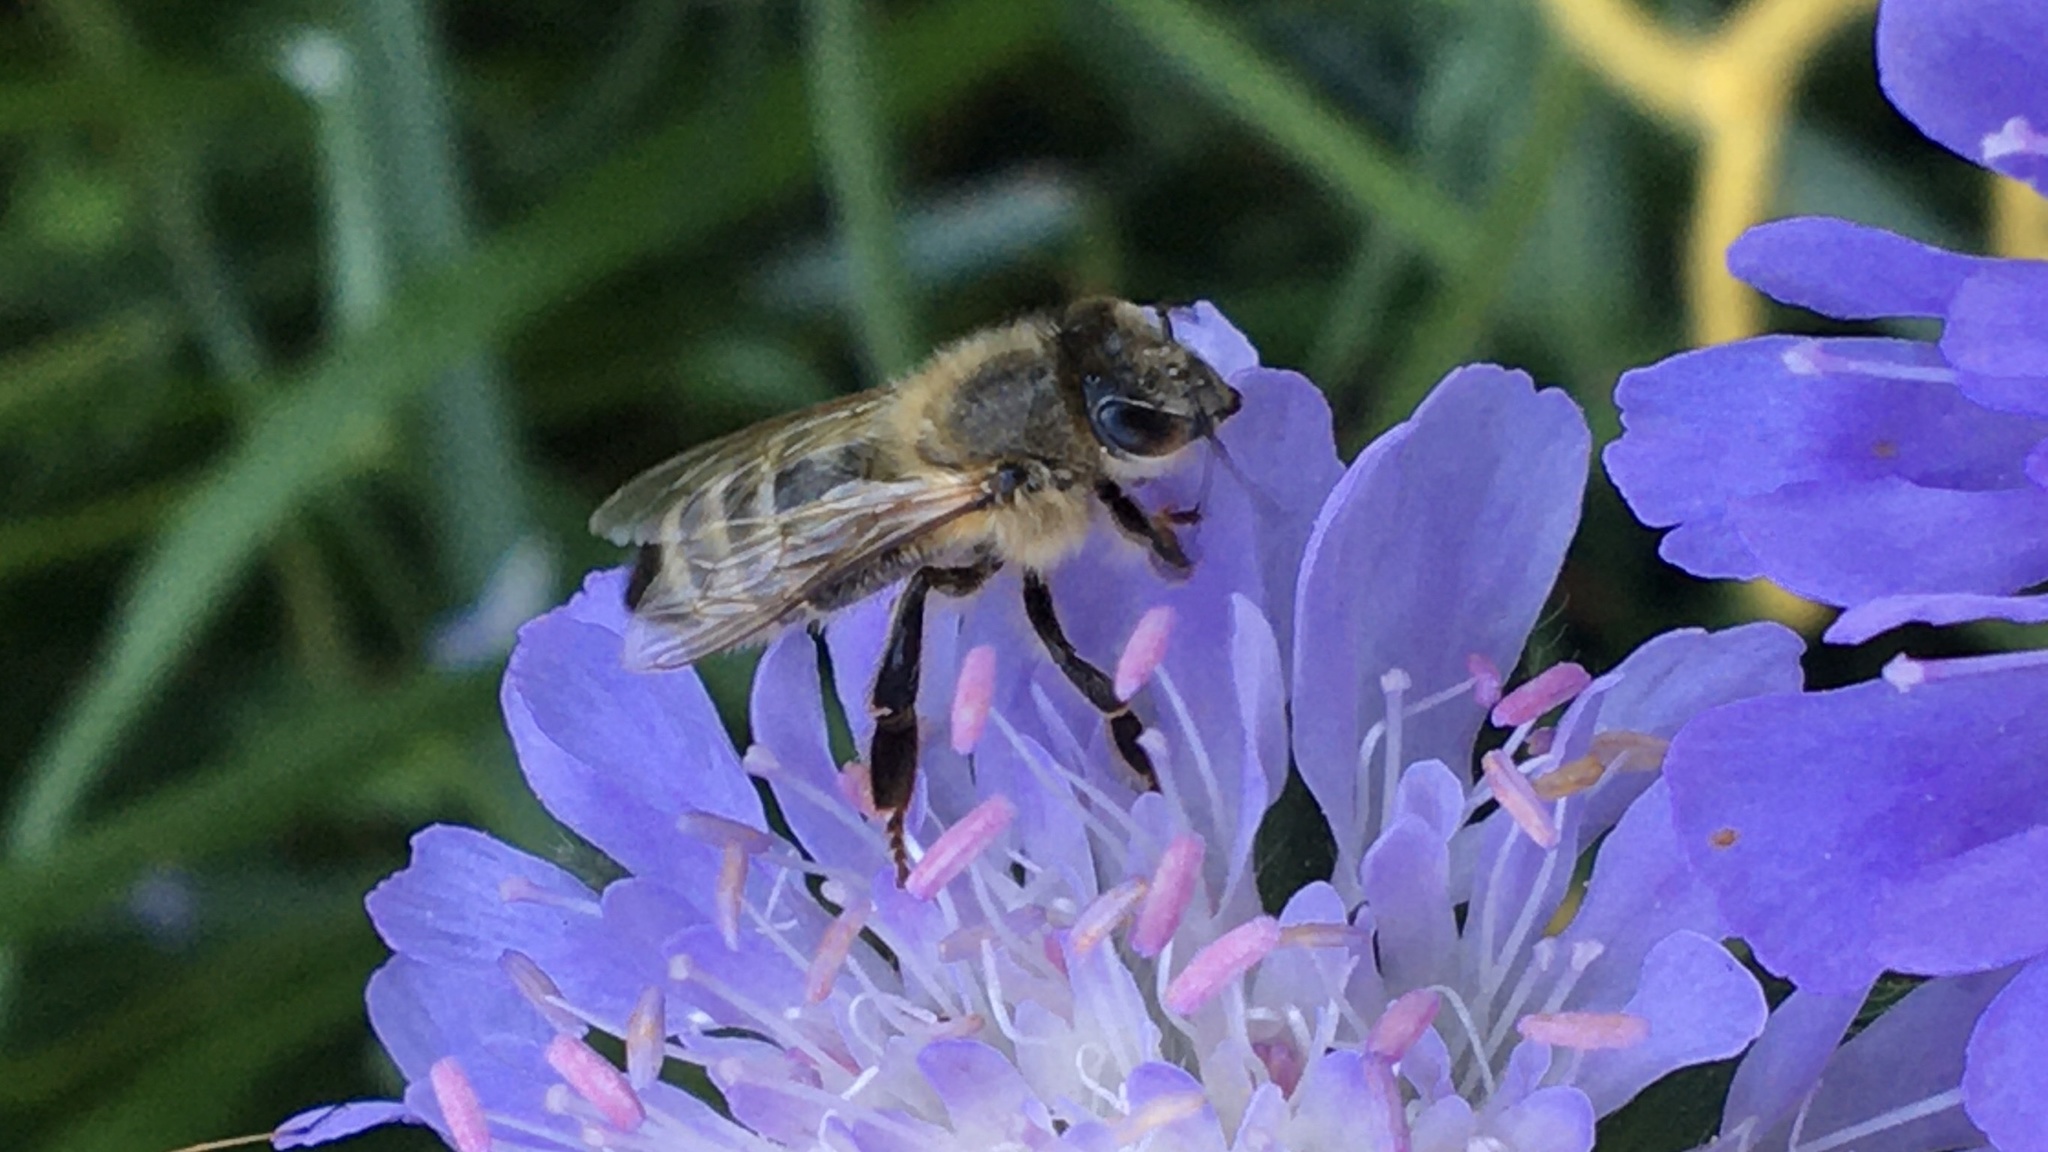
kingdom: Animalia
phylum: Arthropoda
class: Insecta
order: Hymenoptera
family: Apidae
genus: Apis
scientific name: Apis mellifera
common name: Honey bee
